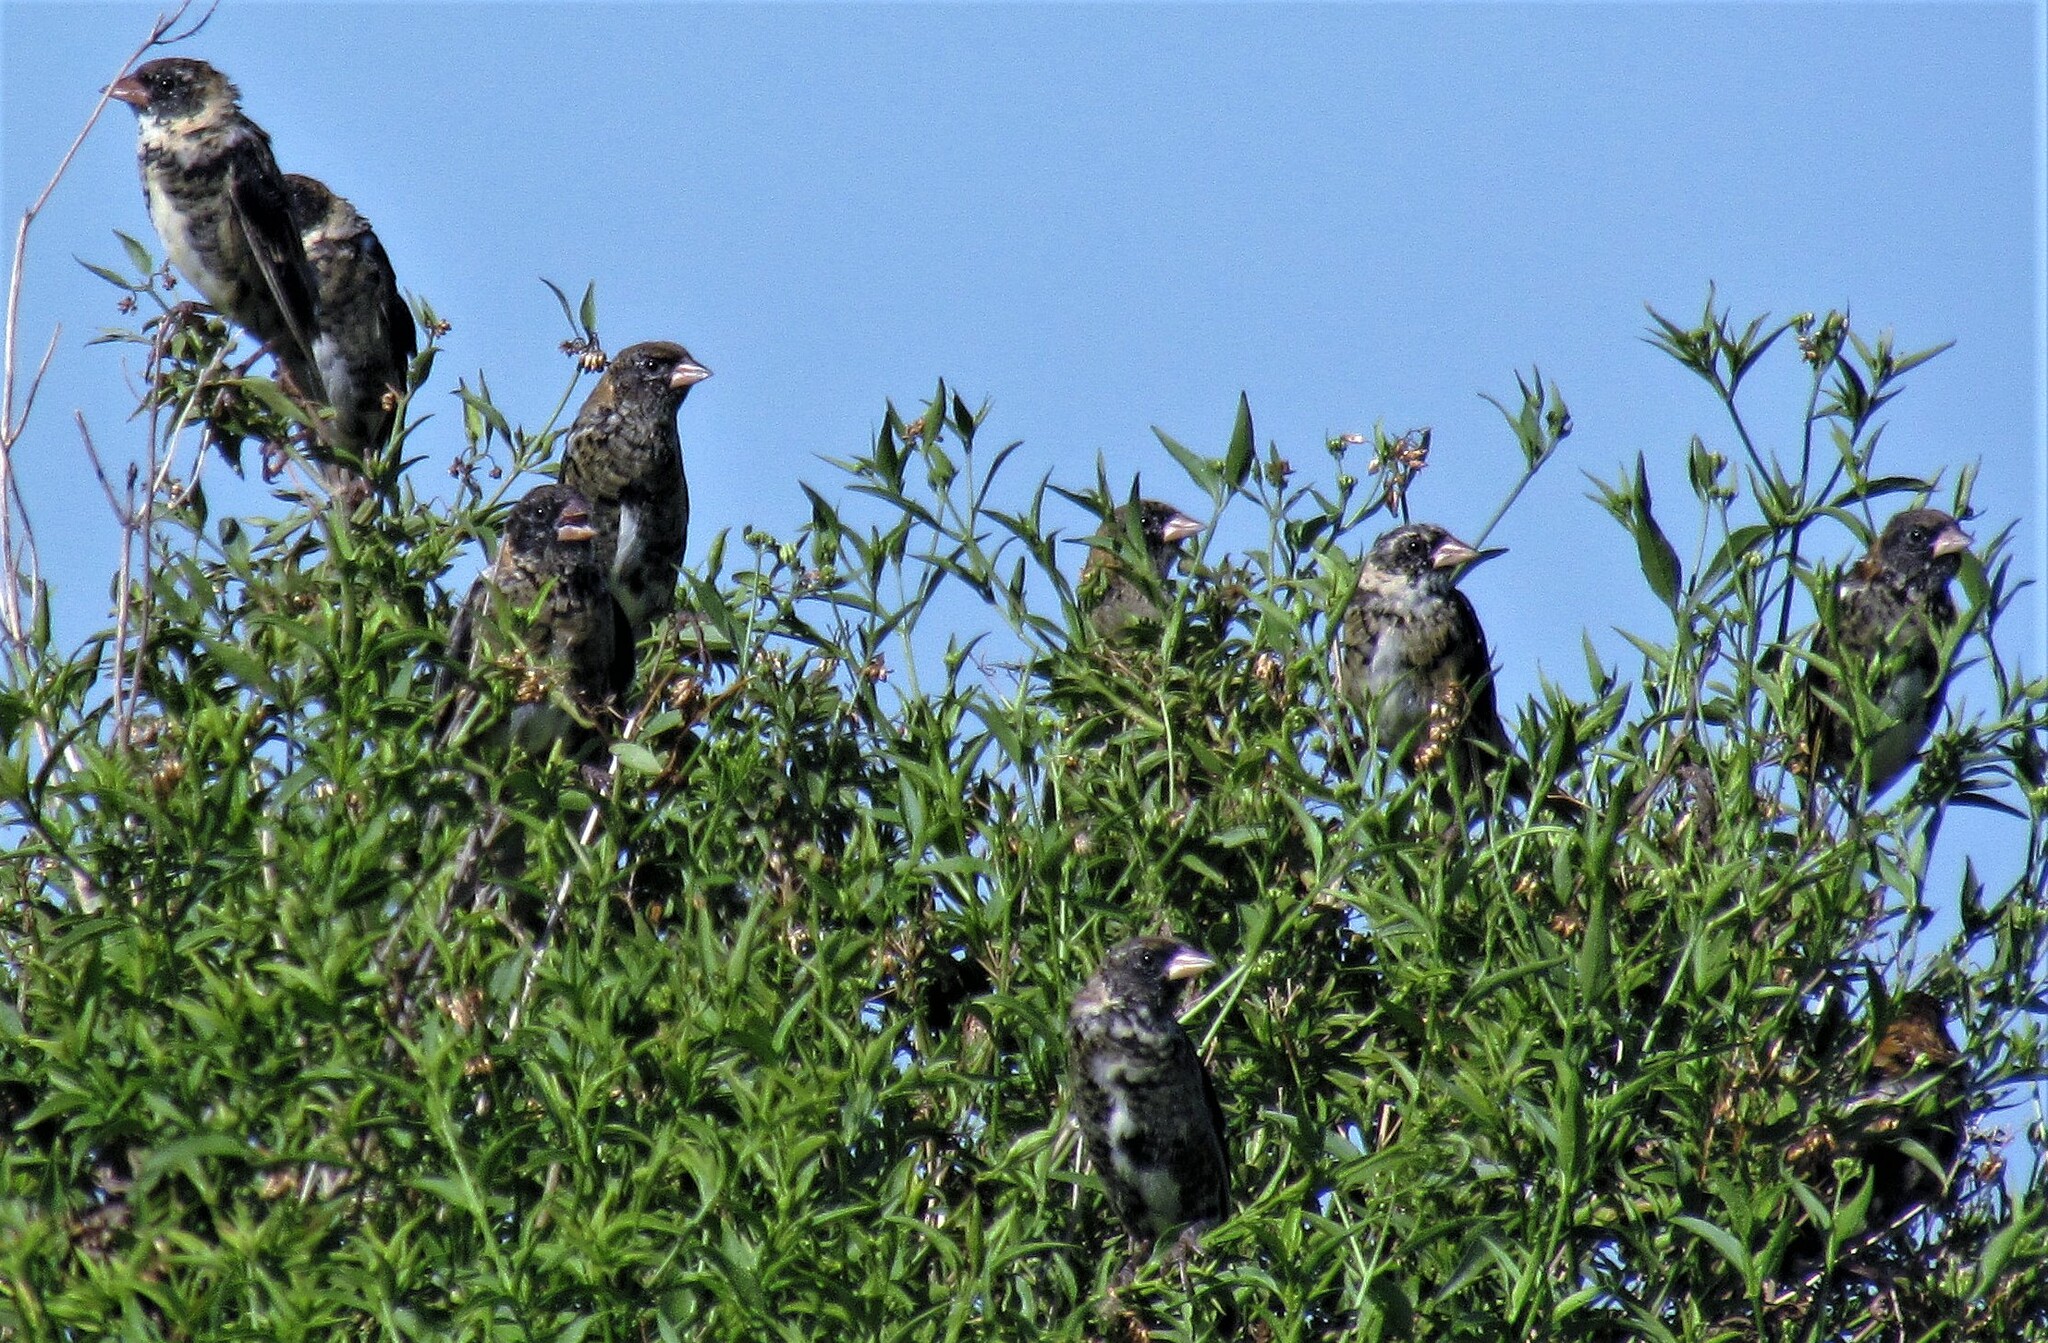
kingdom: Animalia
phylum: Chordata
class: Aves
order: Passeriformes
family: Icteridae
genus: Dolichonyx
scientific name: Dolichonyx oryzivorus
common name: Bobolink
